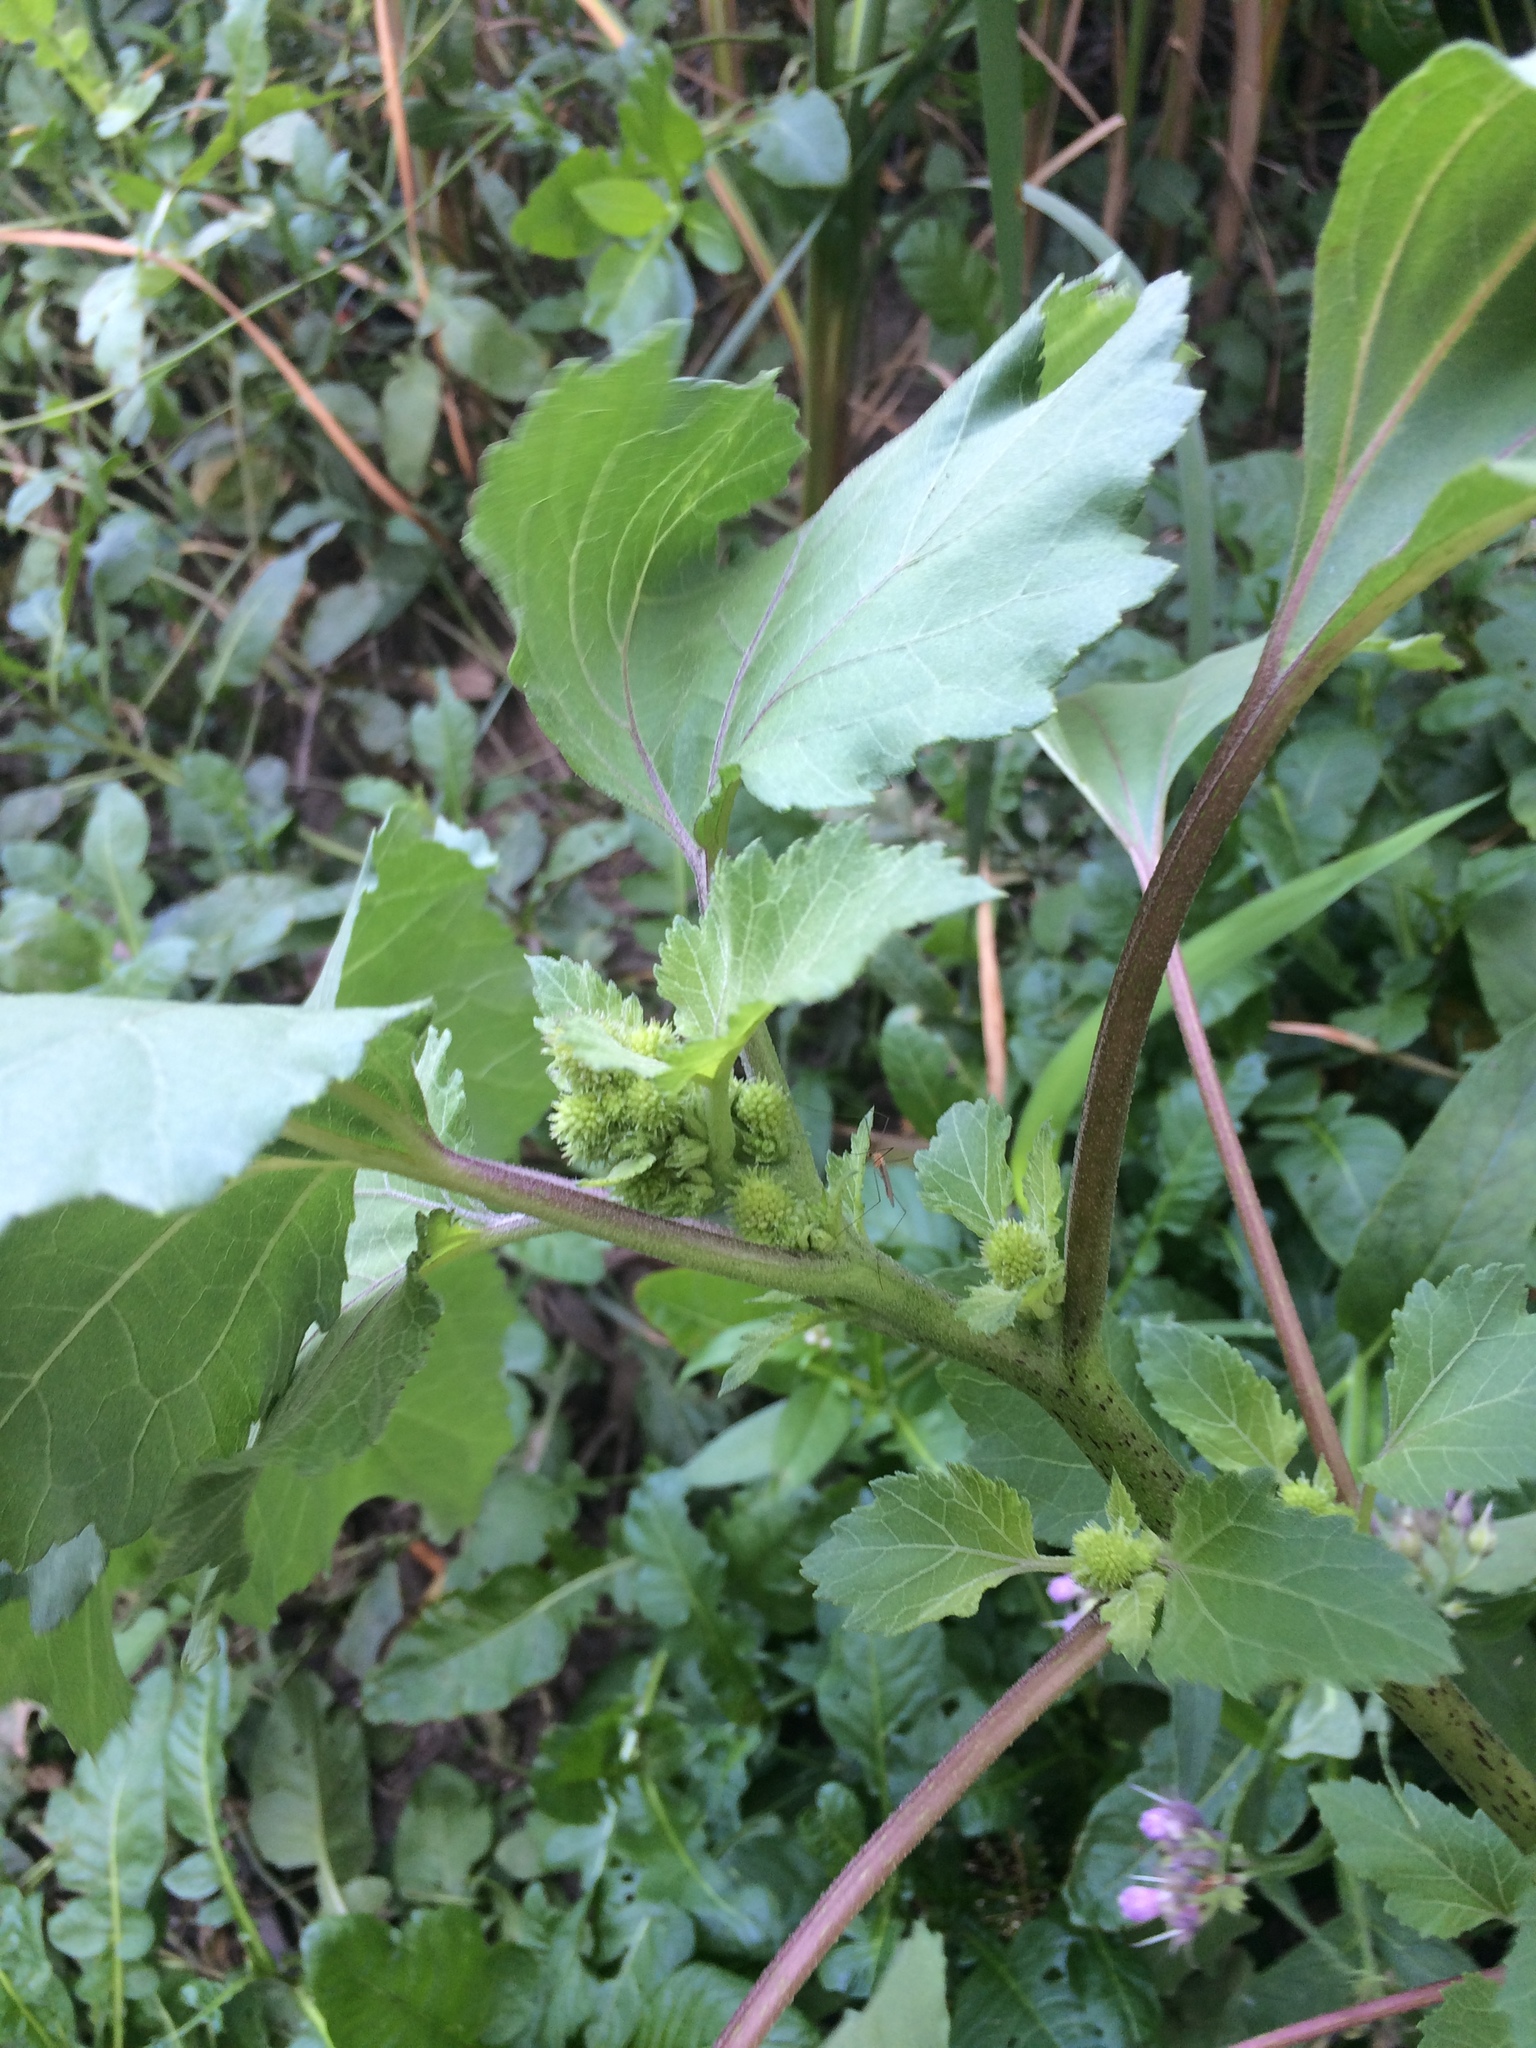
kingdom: Plantae
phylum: Tracheophyta
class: Magnoliopsida
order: Asterales
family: Asteraceae
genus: Xanthium
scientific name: Xanthium strumarium
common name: Rough cocklebur
